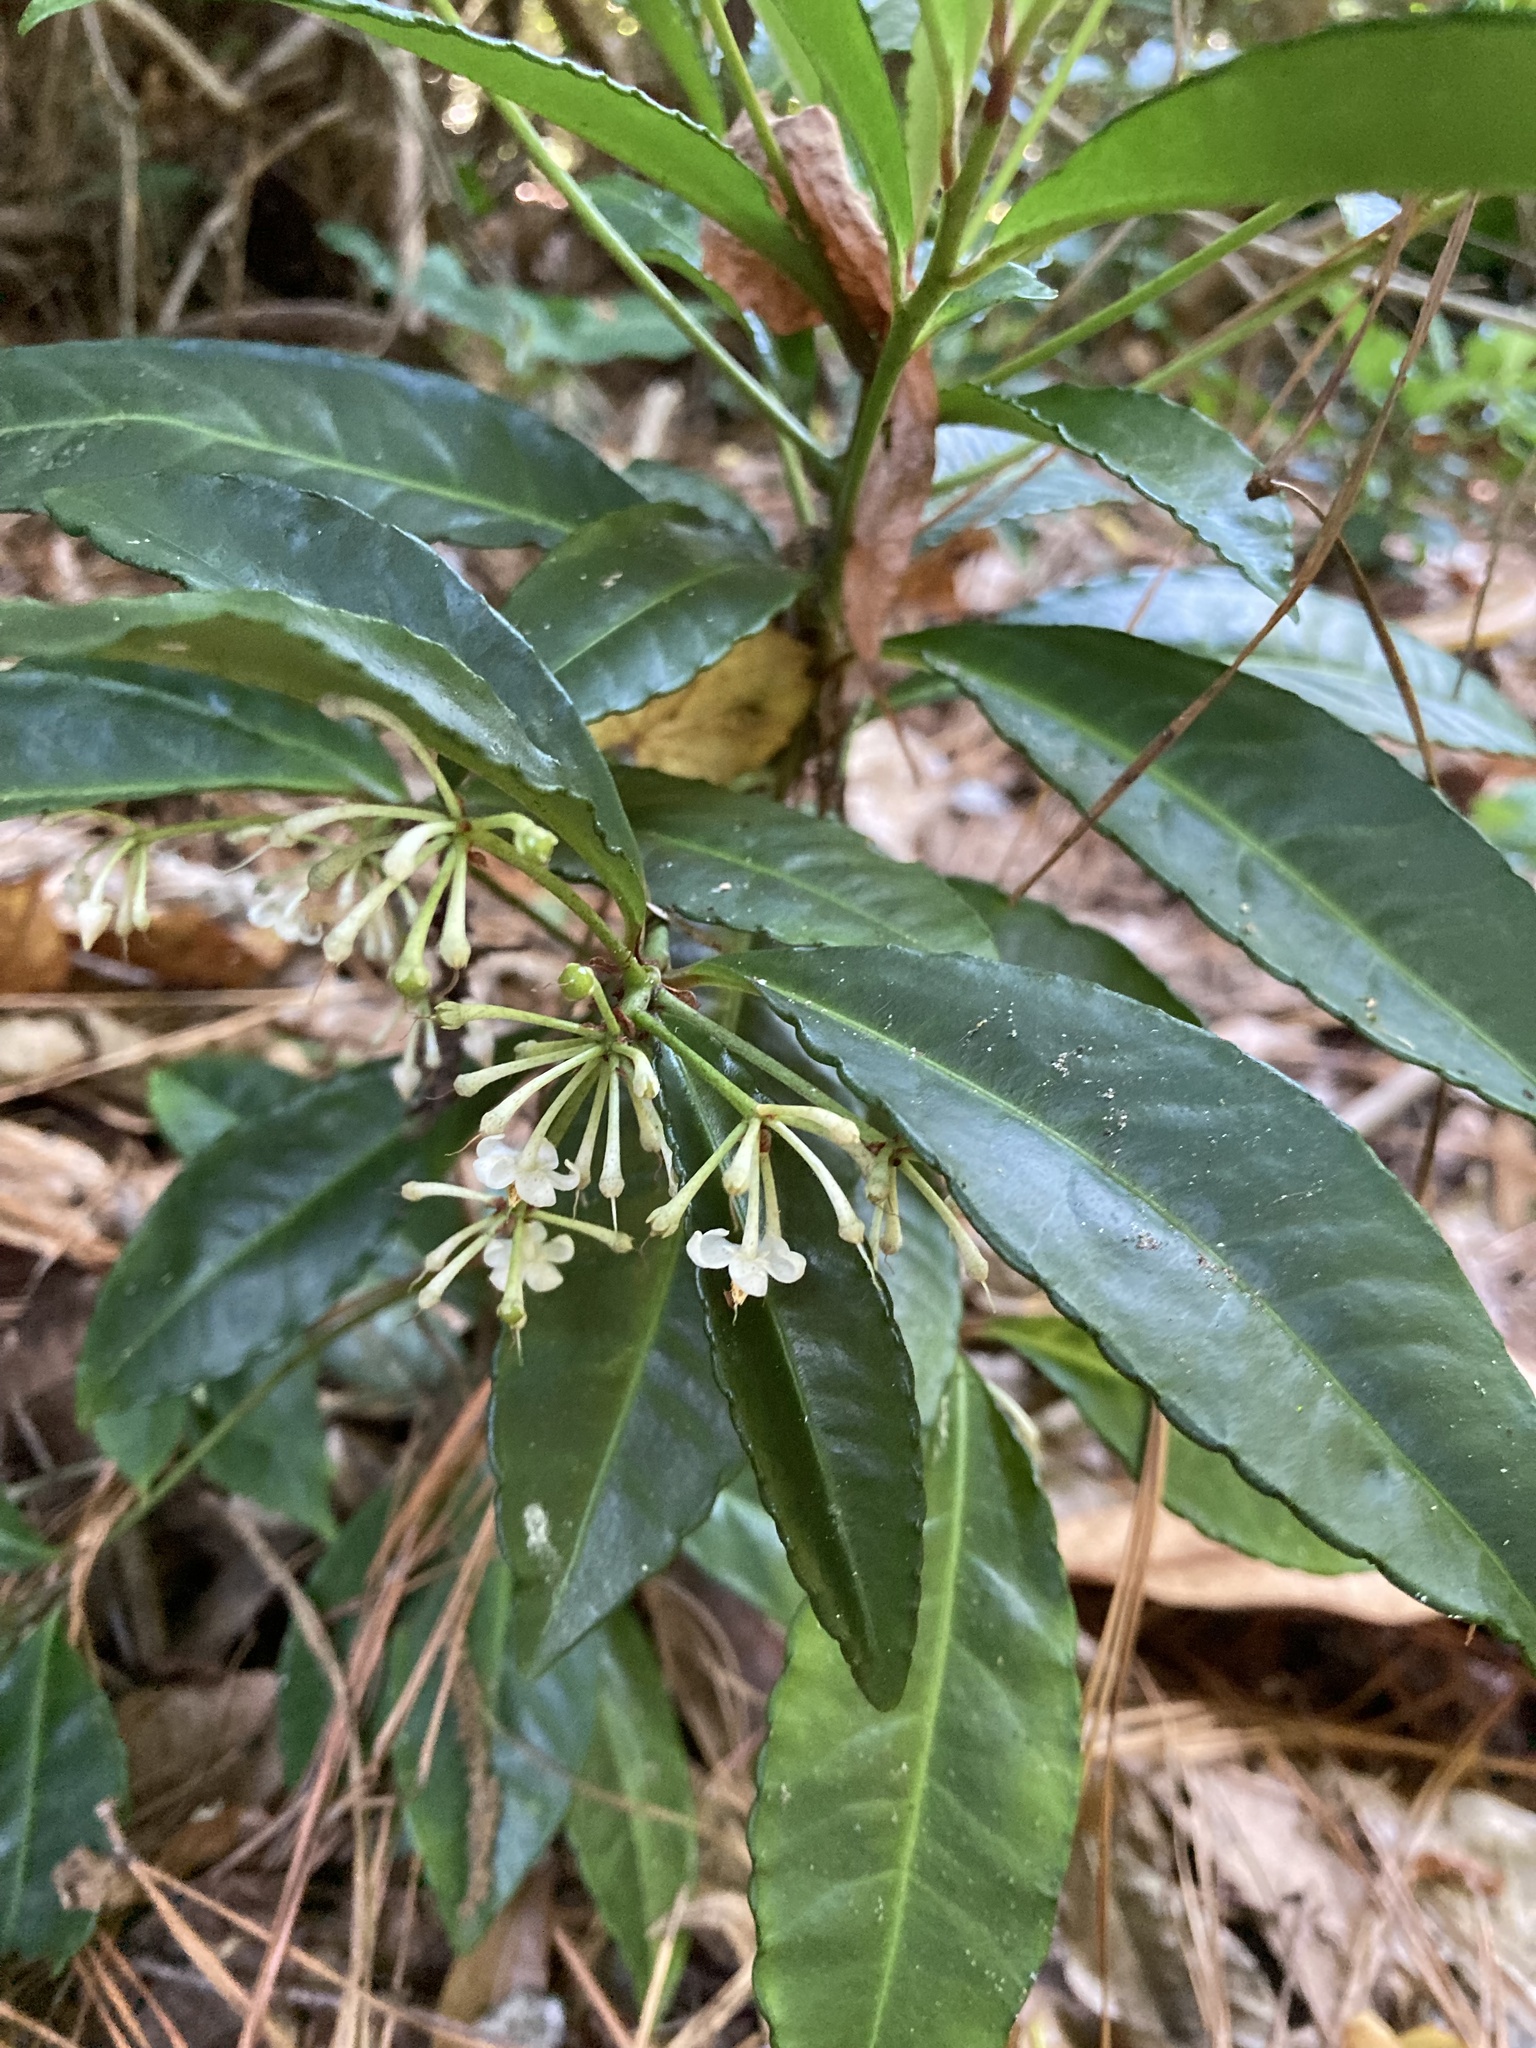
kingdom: Plantae
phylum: Tracheophyta
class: Magnoliopsida
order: Ericales
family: Primulaceae
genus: Ardisia
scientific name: Ardisia crenata
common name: Hen's eyes
